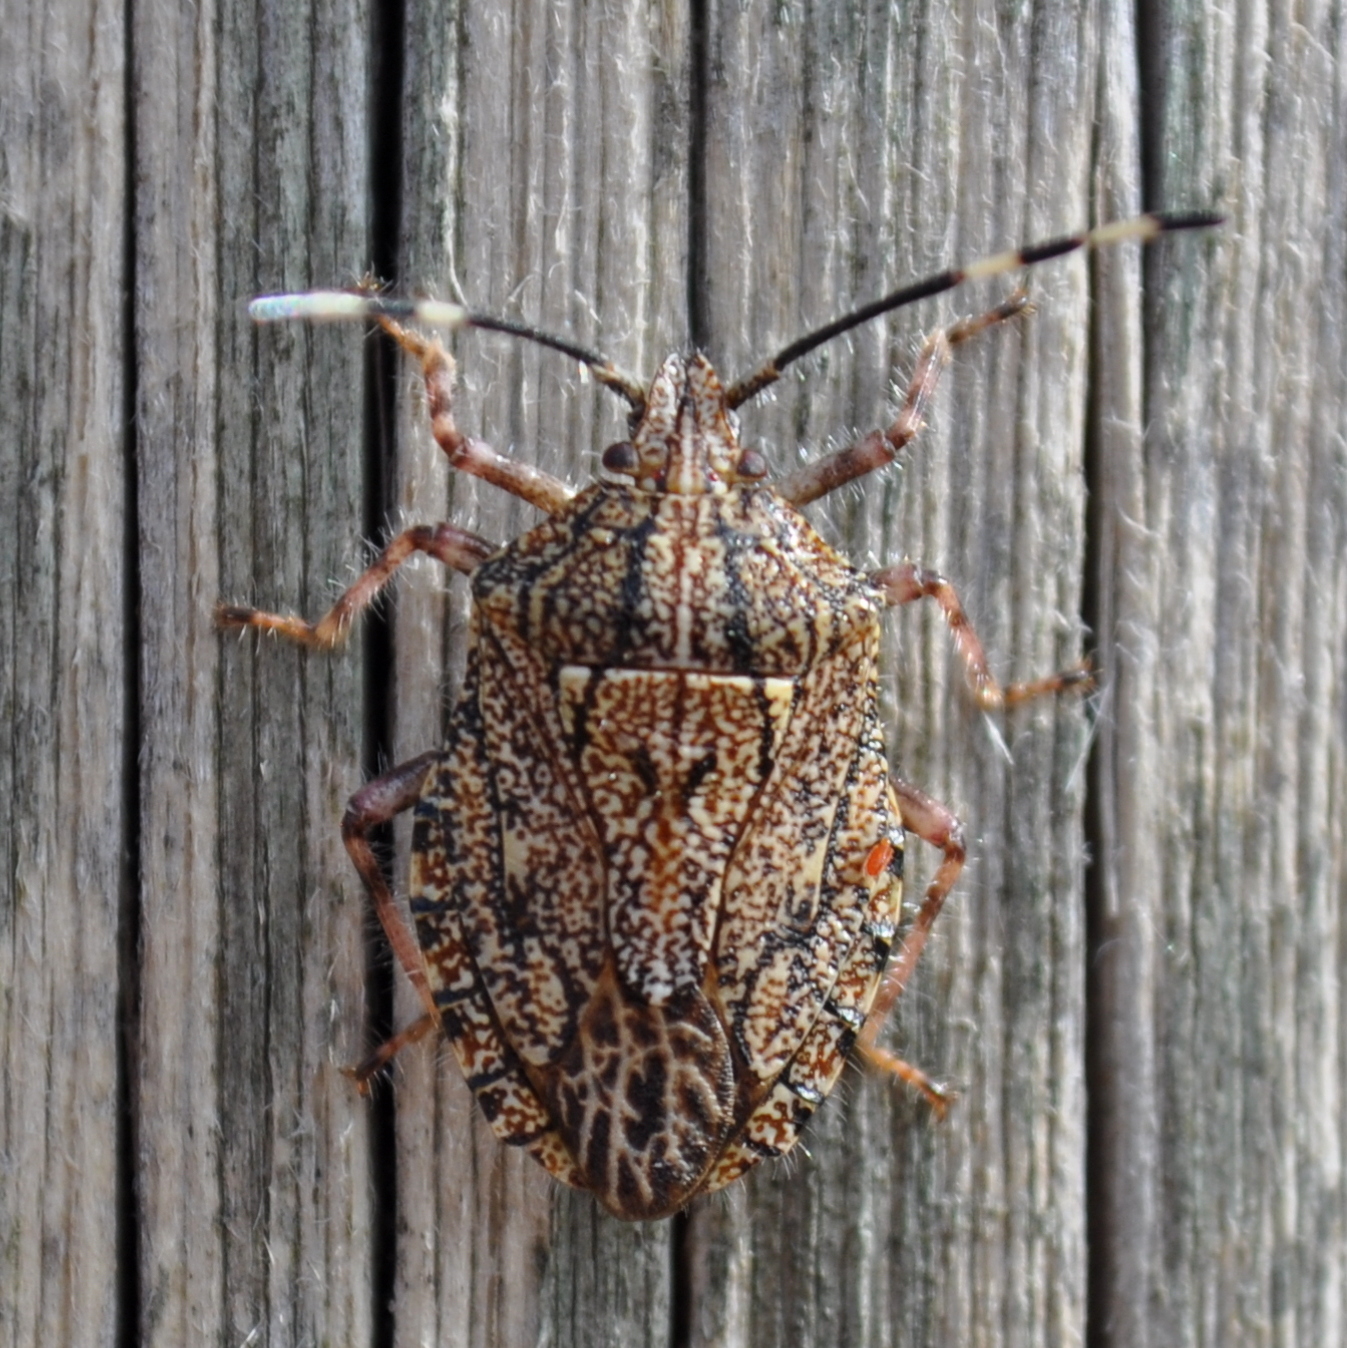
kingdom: Animalia
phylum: Arthropoda
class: Insecta
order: Hemiptera
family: Pentatomidae
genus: Dinocoris
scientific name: Dinocoris
